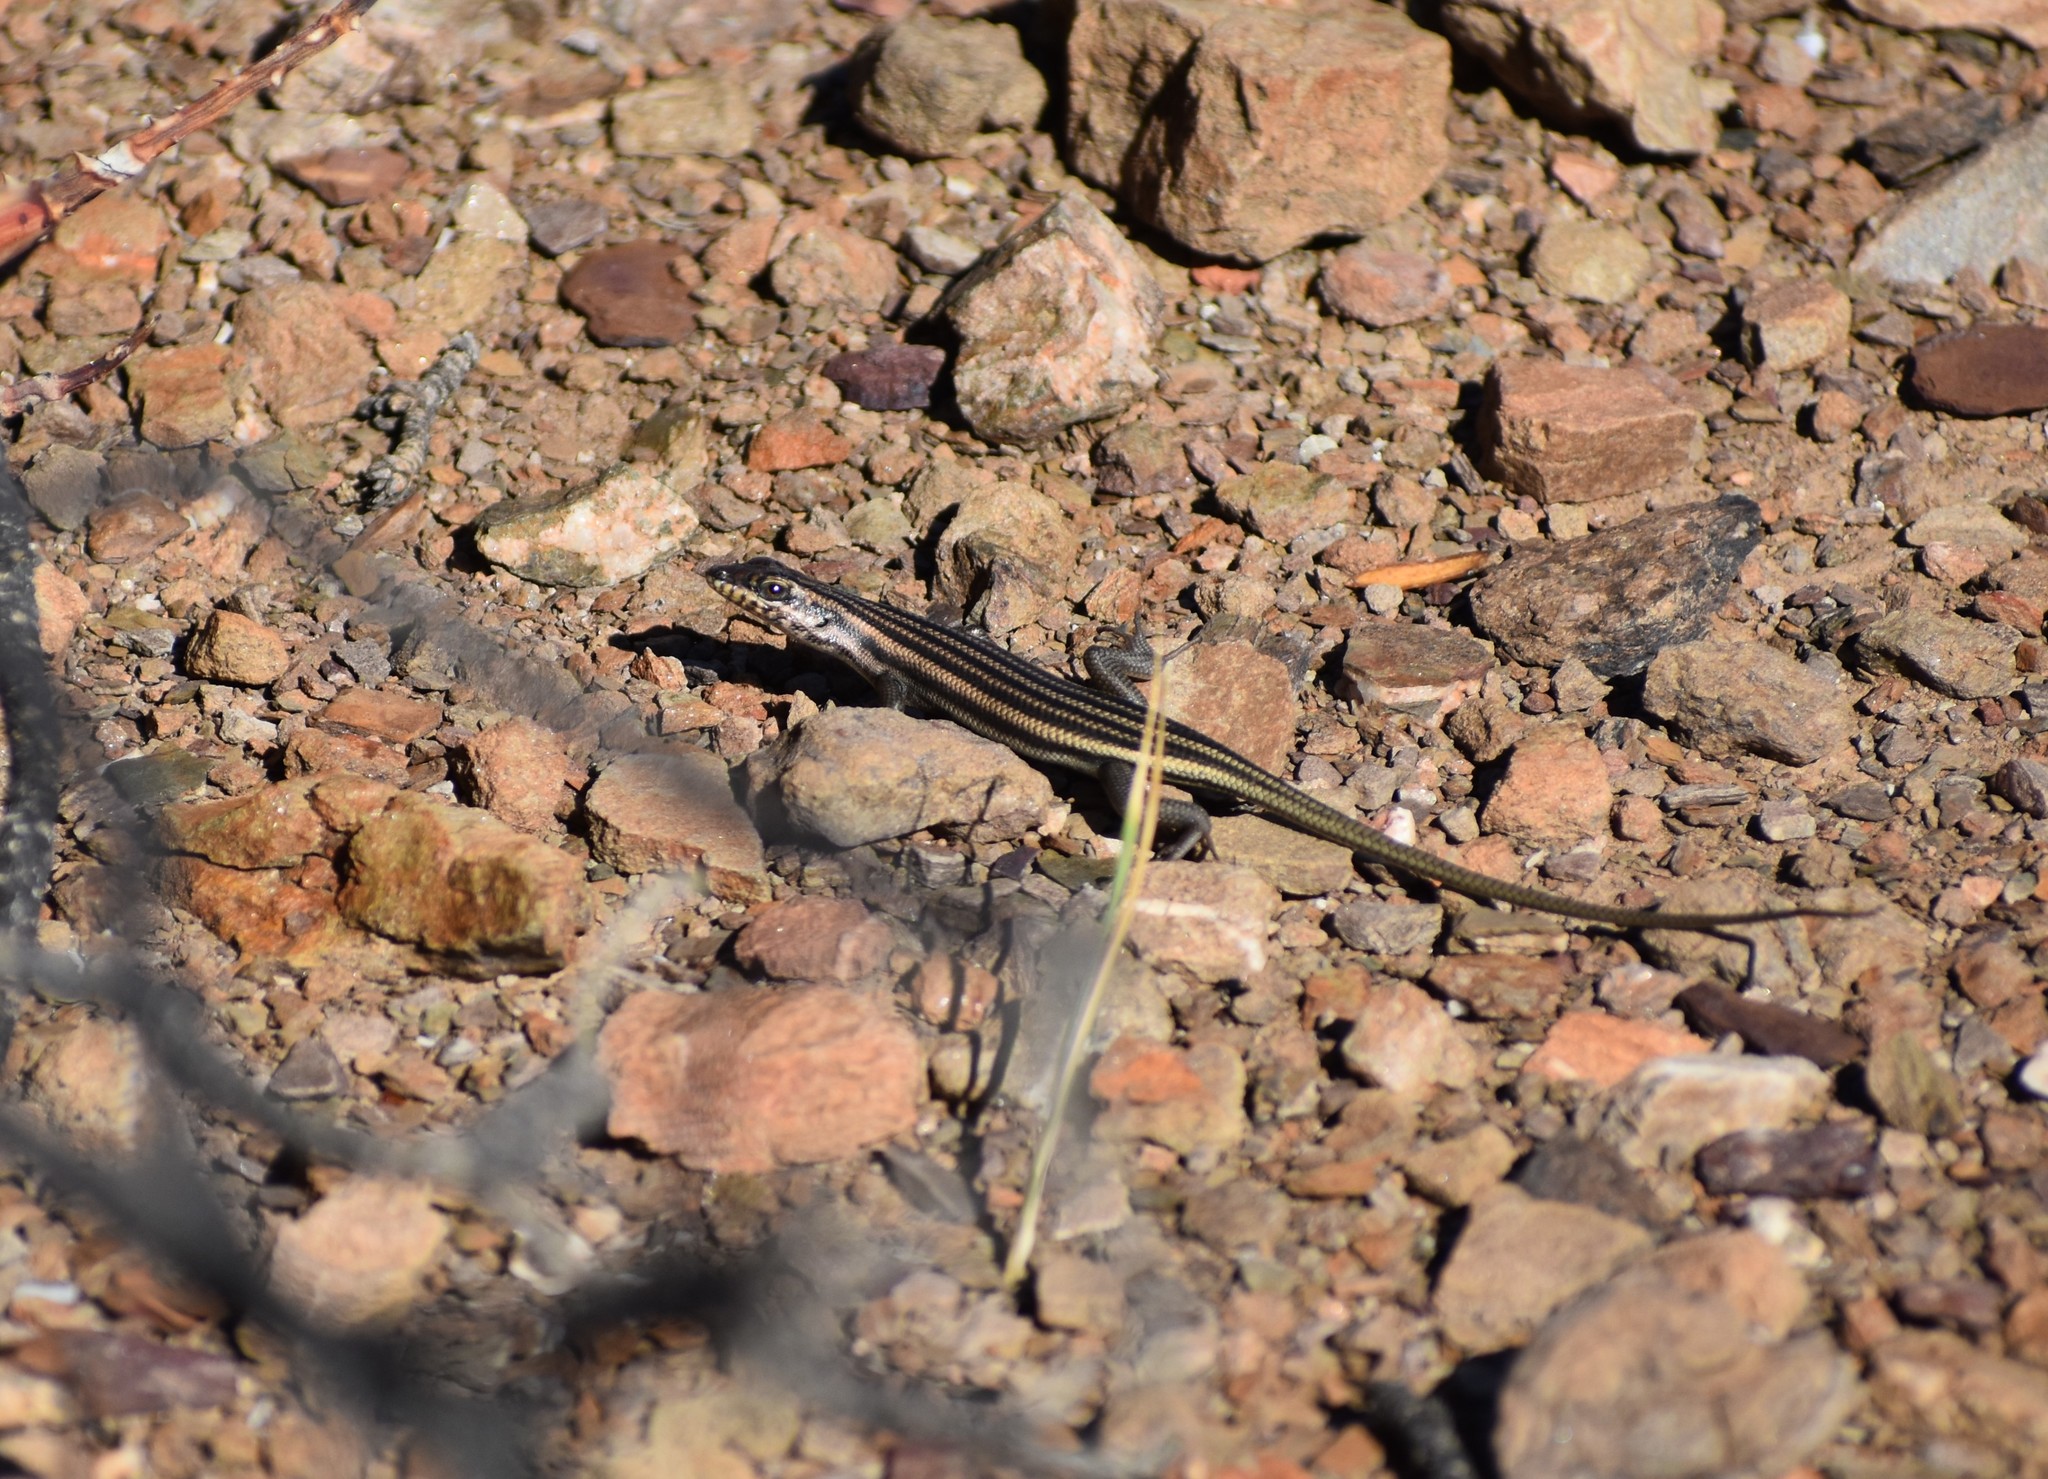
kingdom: Animalia
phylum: Chordata
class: Squamata
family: Scincidae
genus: Trachylepis
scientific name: Trachylepis sulcata
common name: Western rock skink
